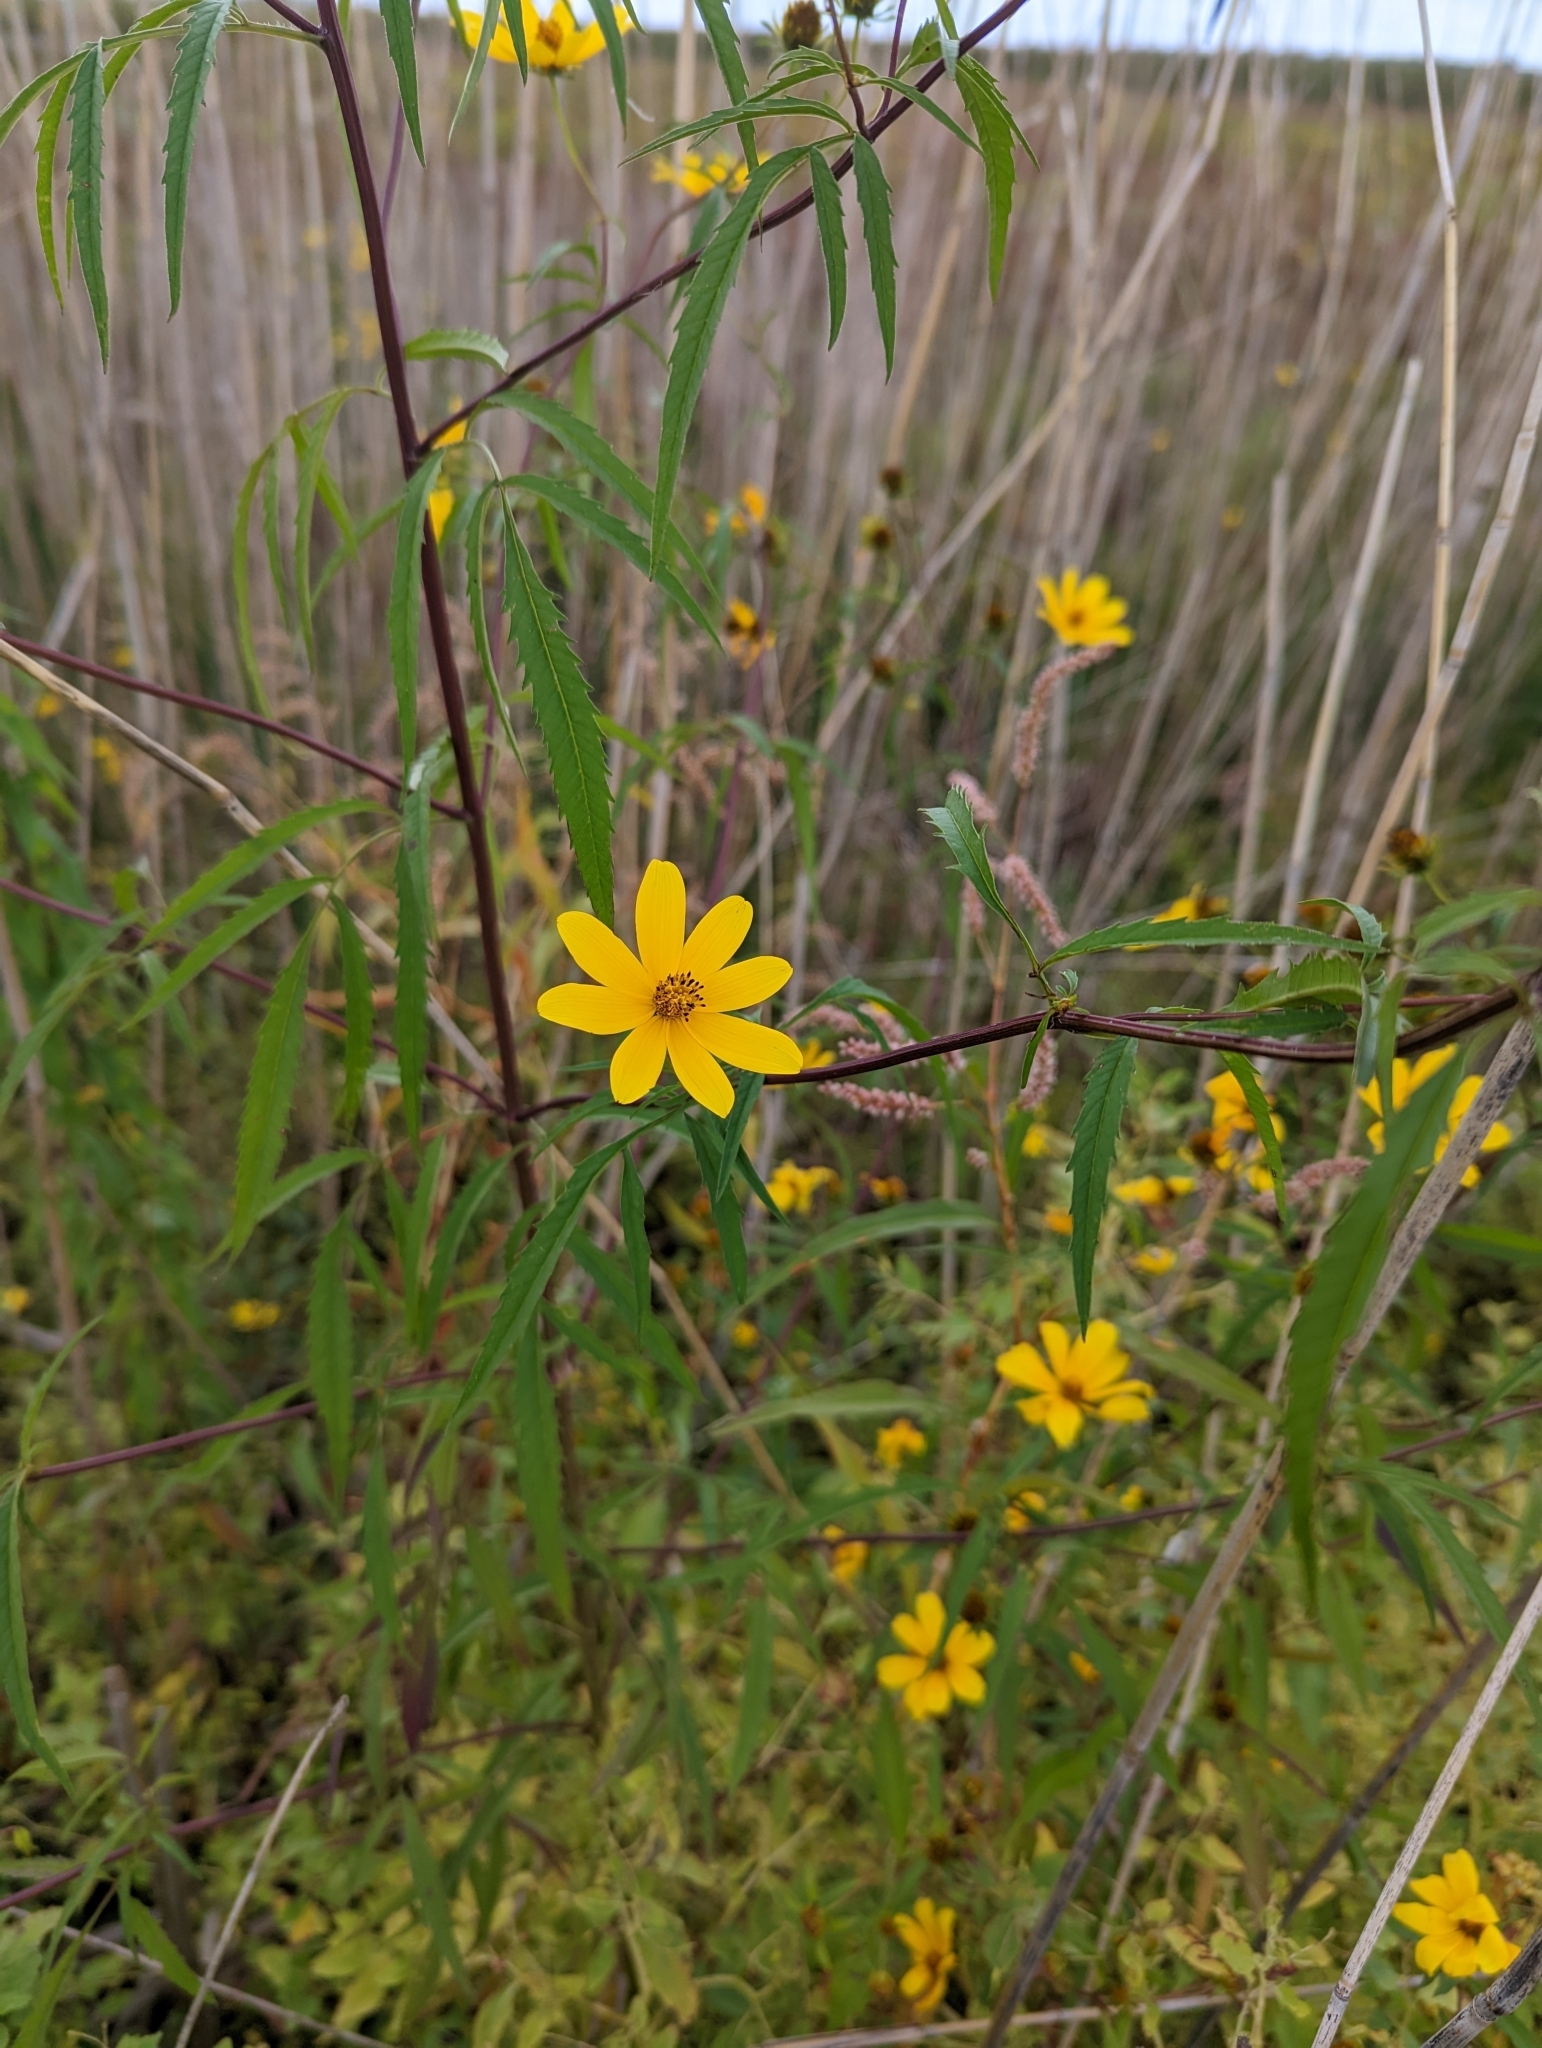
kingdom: Plantae
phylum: Tracheophyta
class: Magnoliopsida
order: Asterales
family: Asteraceae
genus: Bidens
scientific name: Bidens trichosperma
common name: Crowned beggarticks
